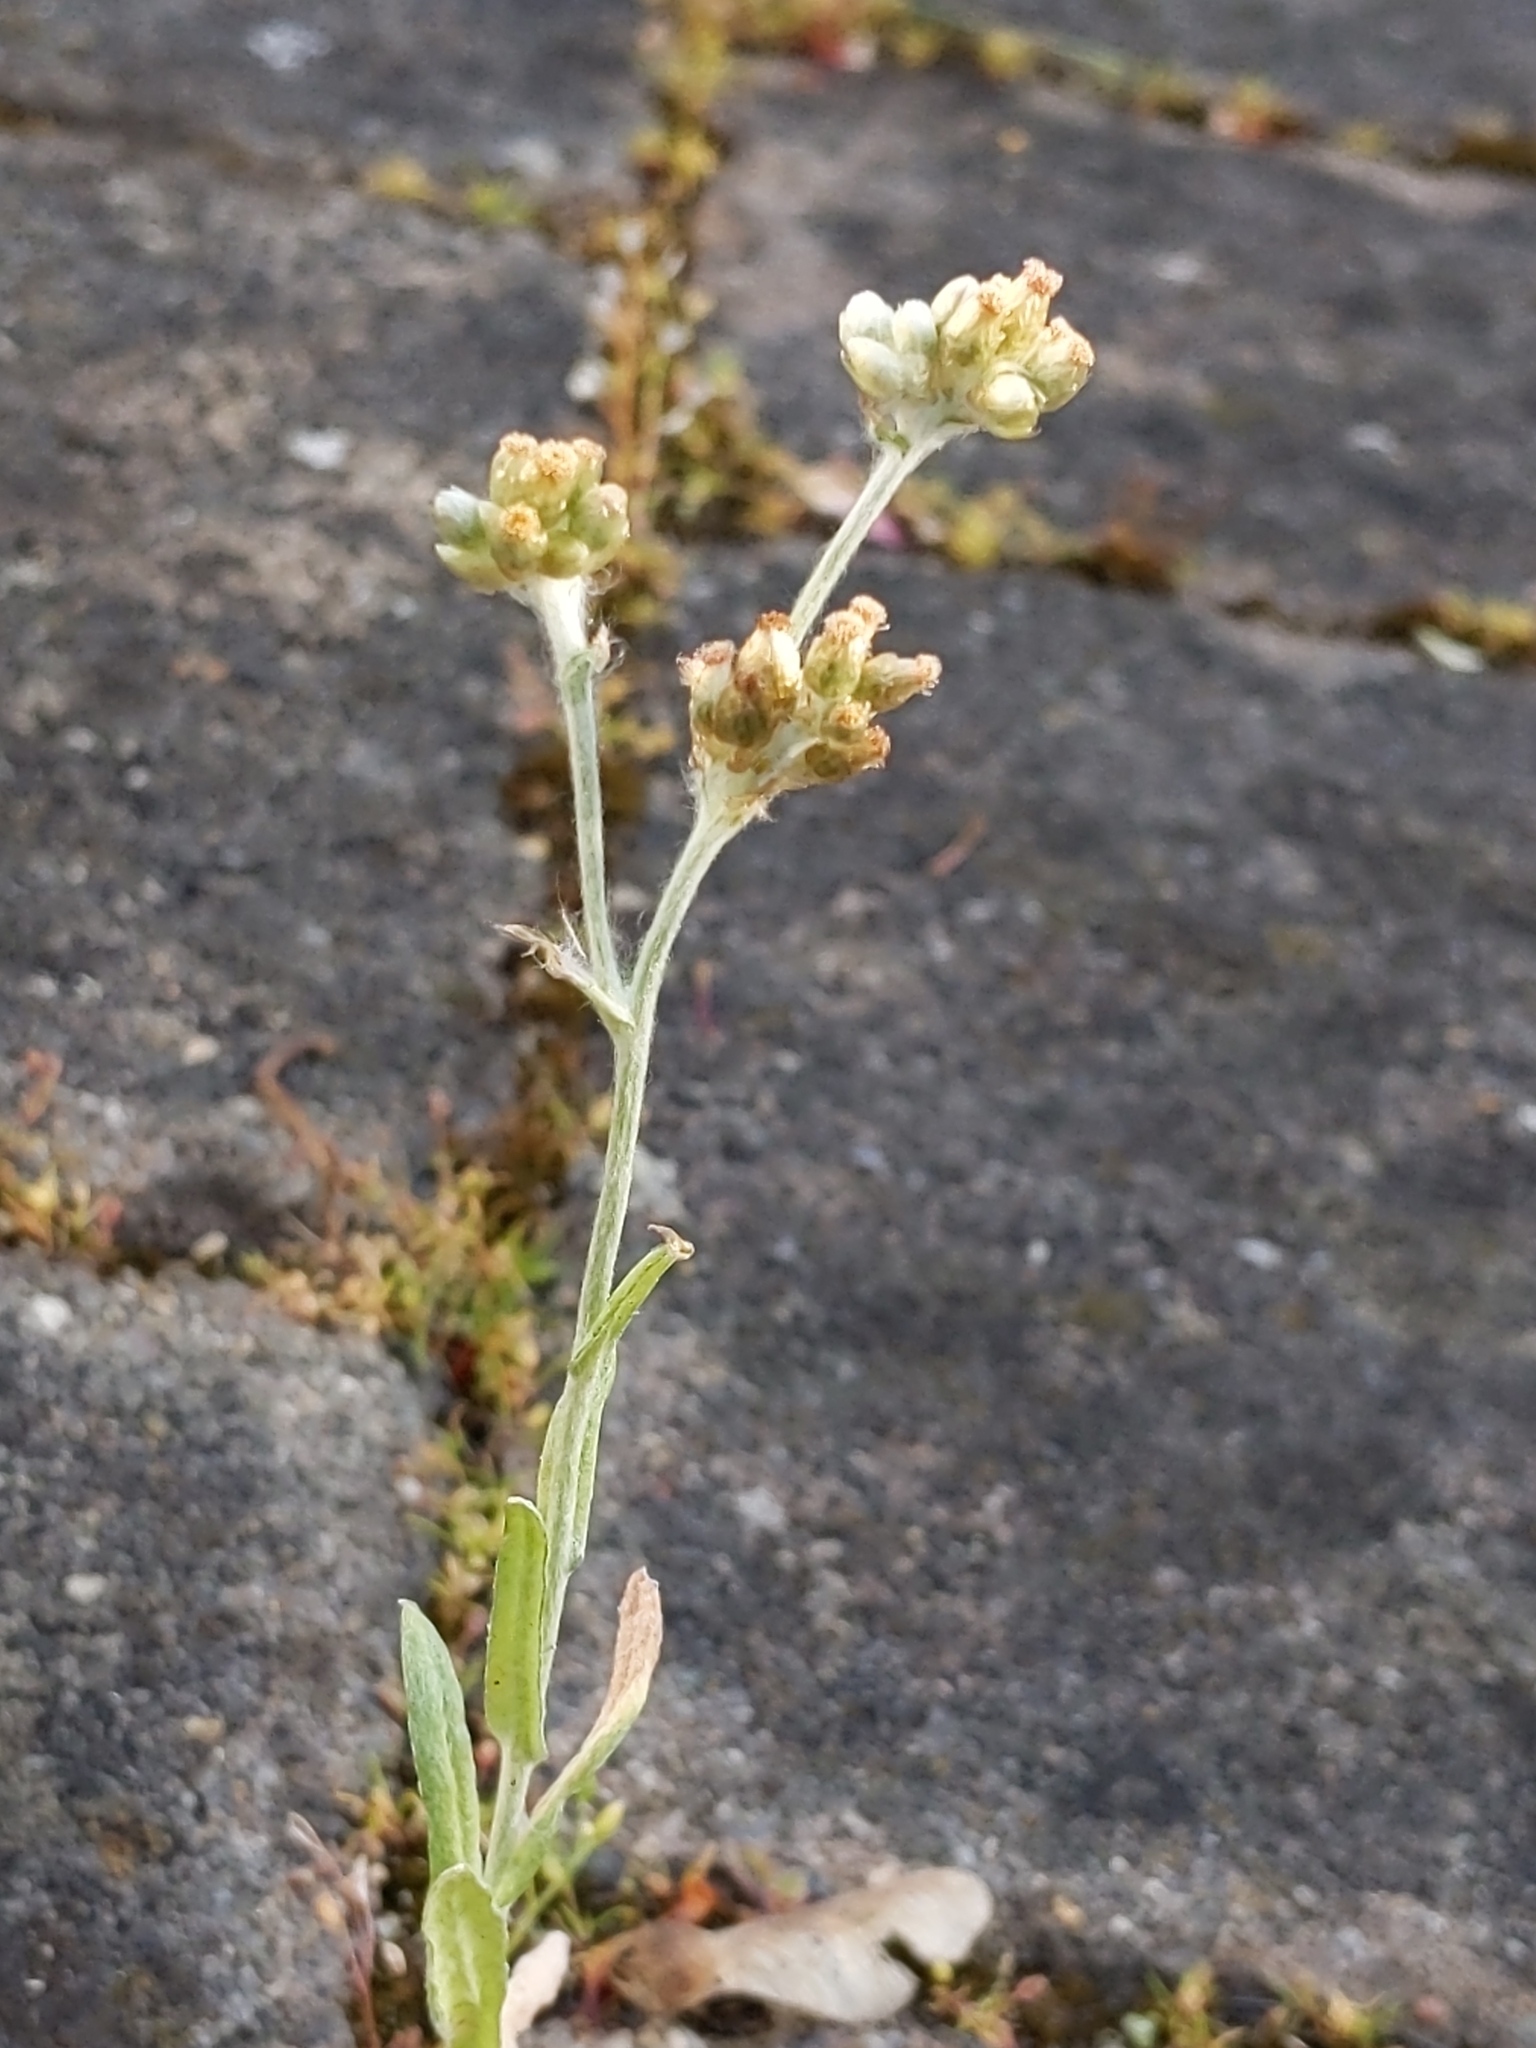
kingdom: Plantae
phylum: Tracheophyta
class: Magnoliopsida
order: Asterales
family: Asteraceae
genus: Helichrysum
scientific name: Helichrysum luteoalbum
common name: Daisy
